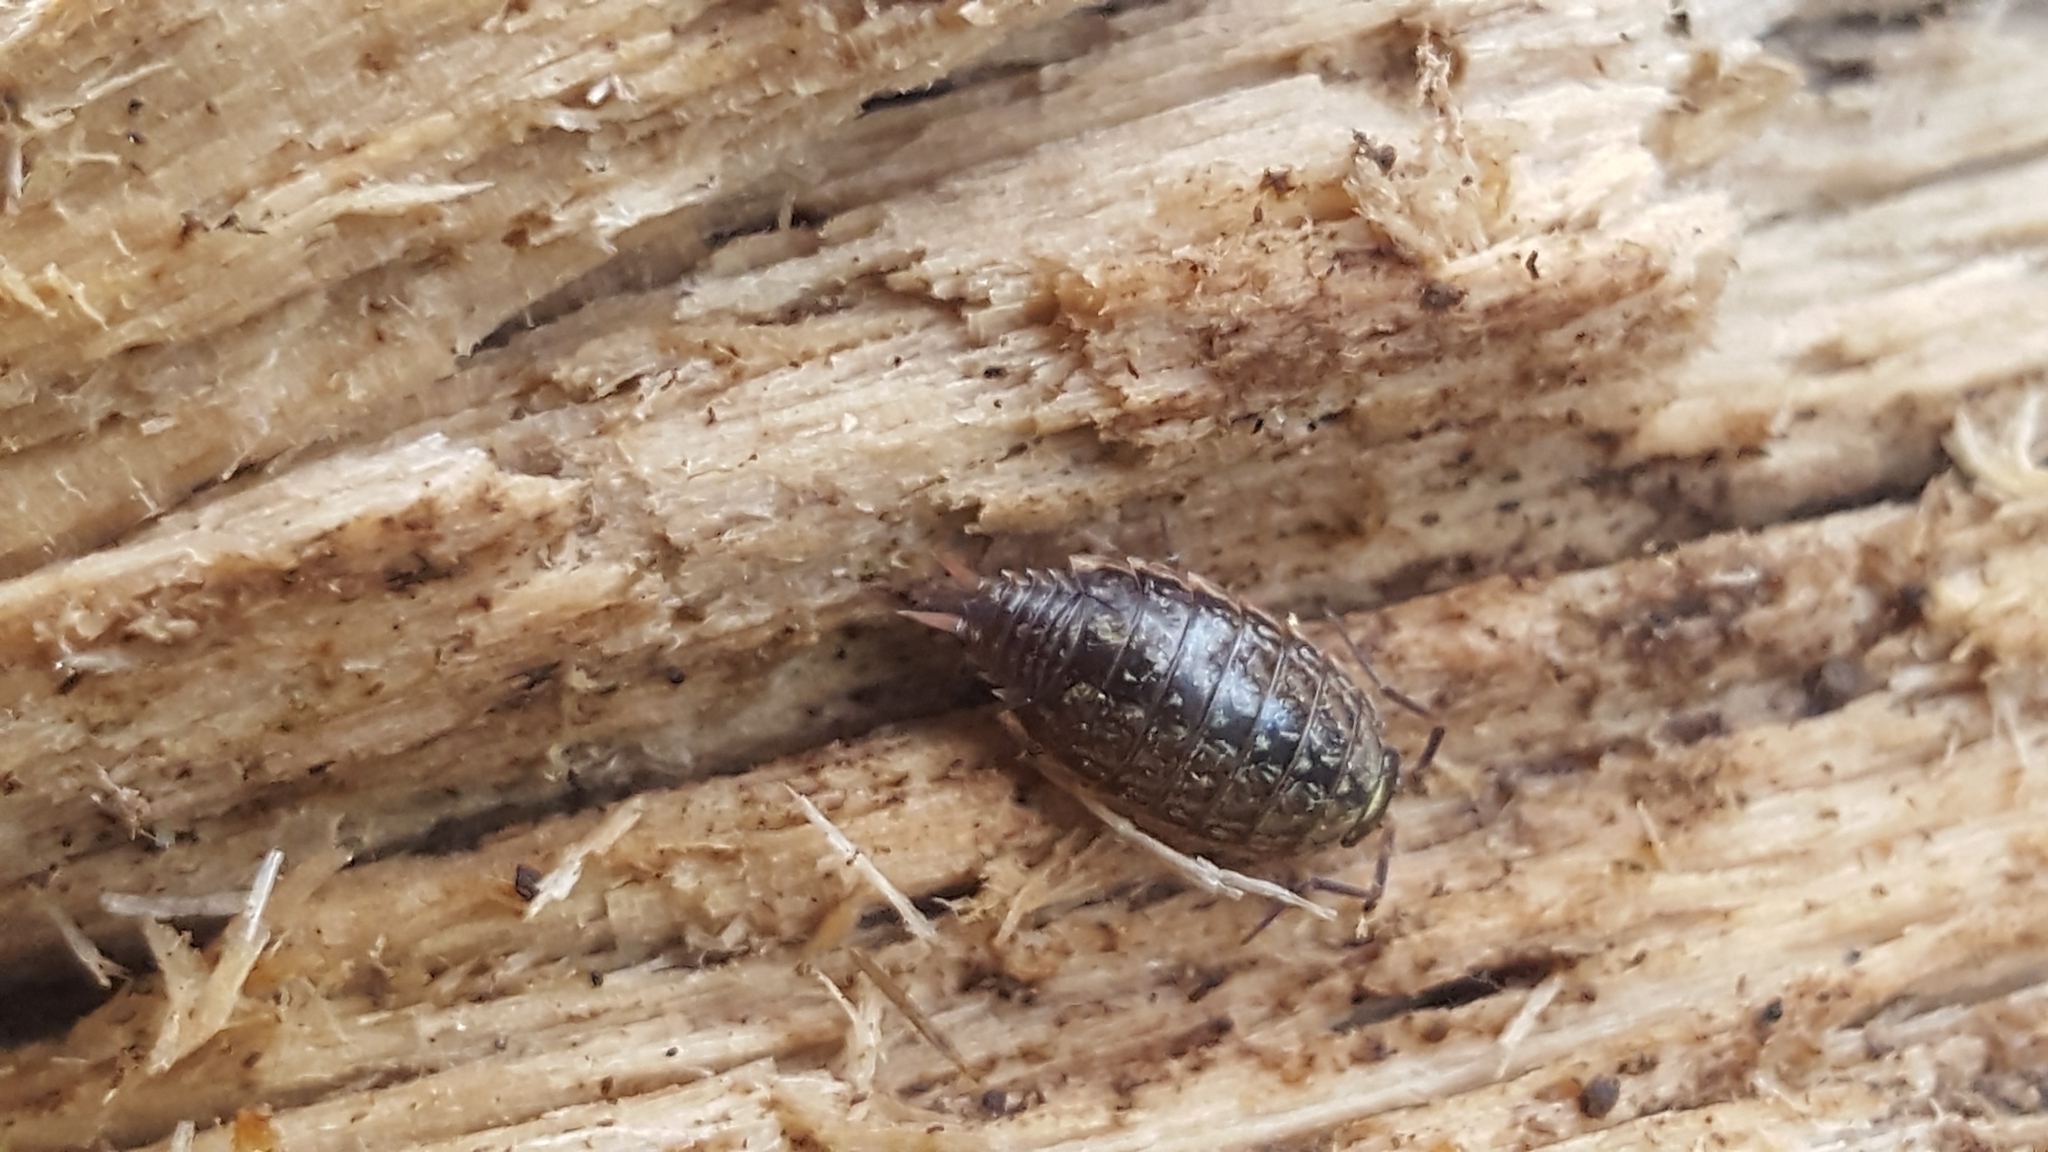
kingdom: Animalia
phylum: Arthropoda
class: Malacostraca
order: Isopoda
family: Philosciidae
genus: Philoscia
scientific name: Philoscia muscorum
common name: Common striped woodlouse
